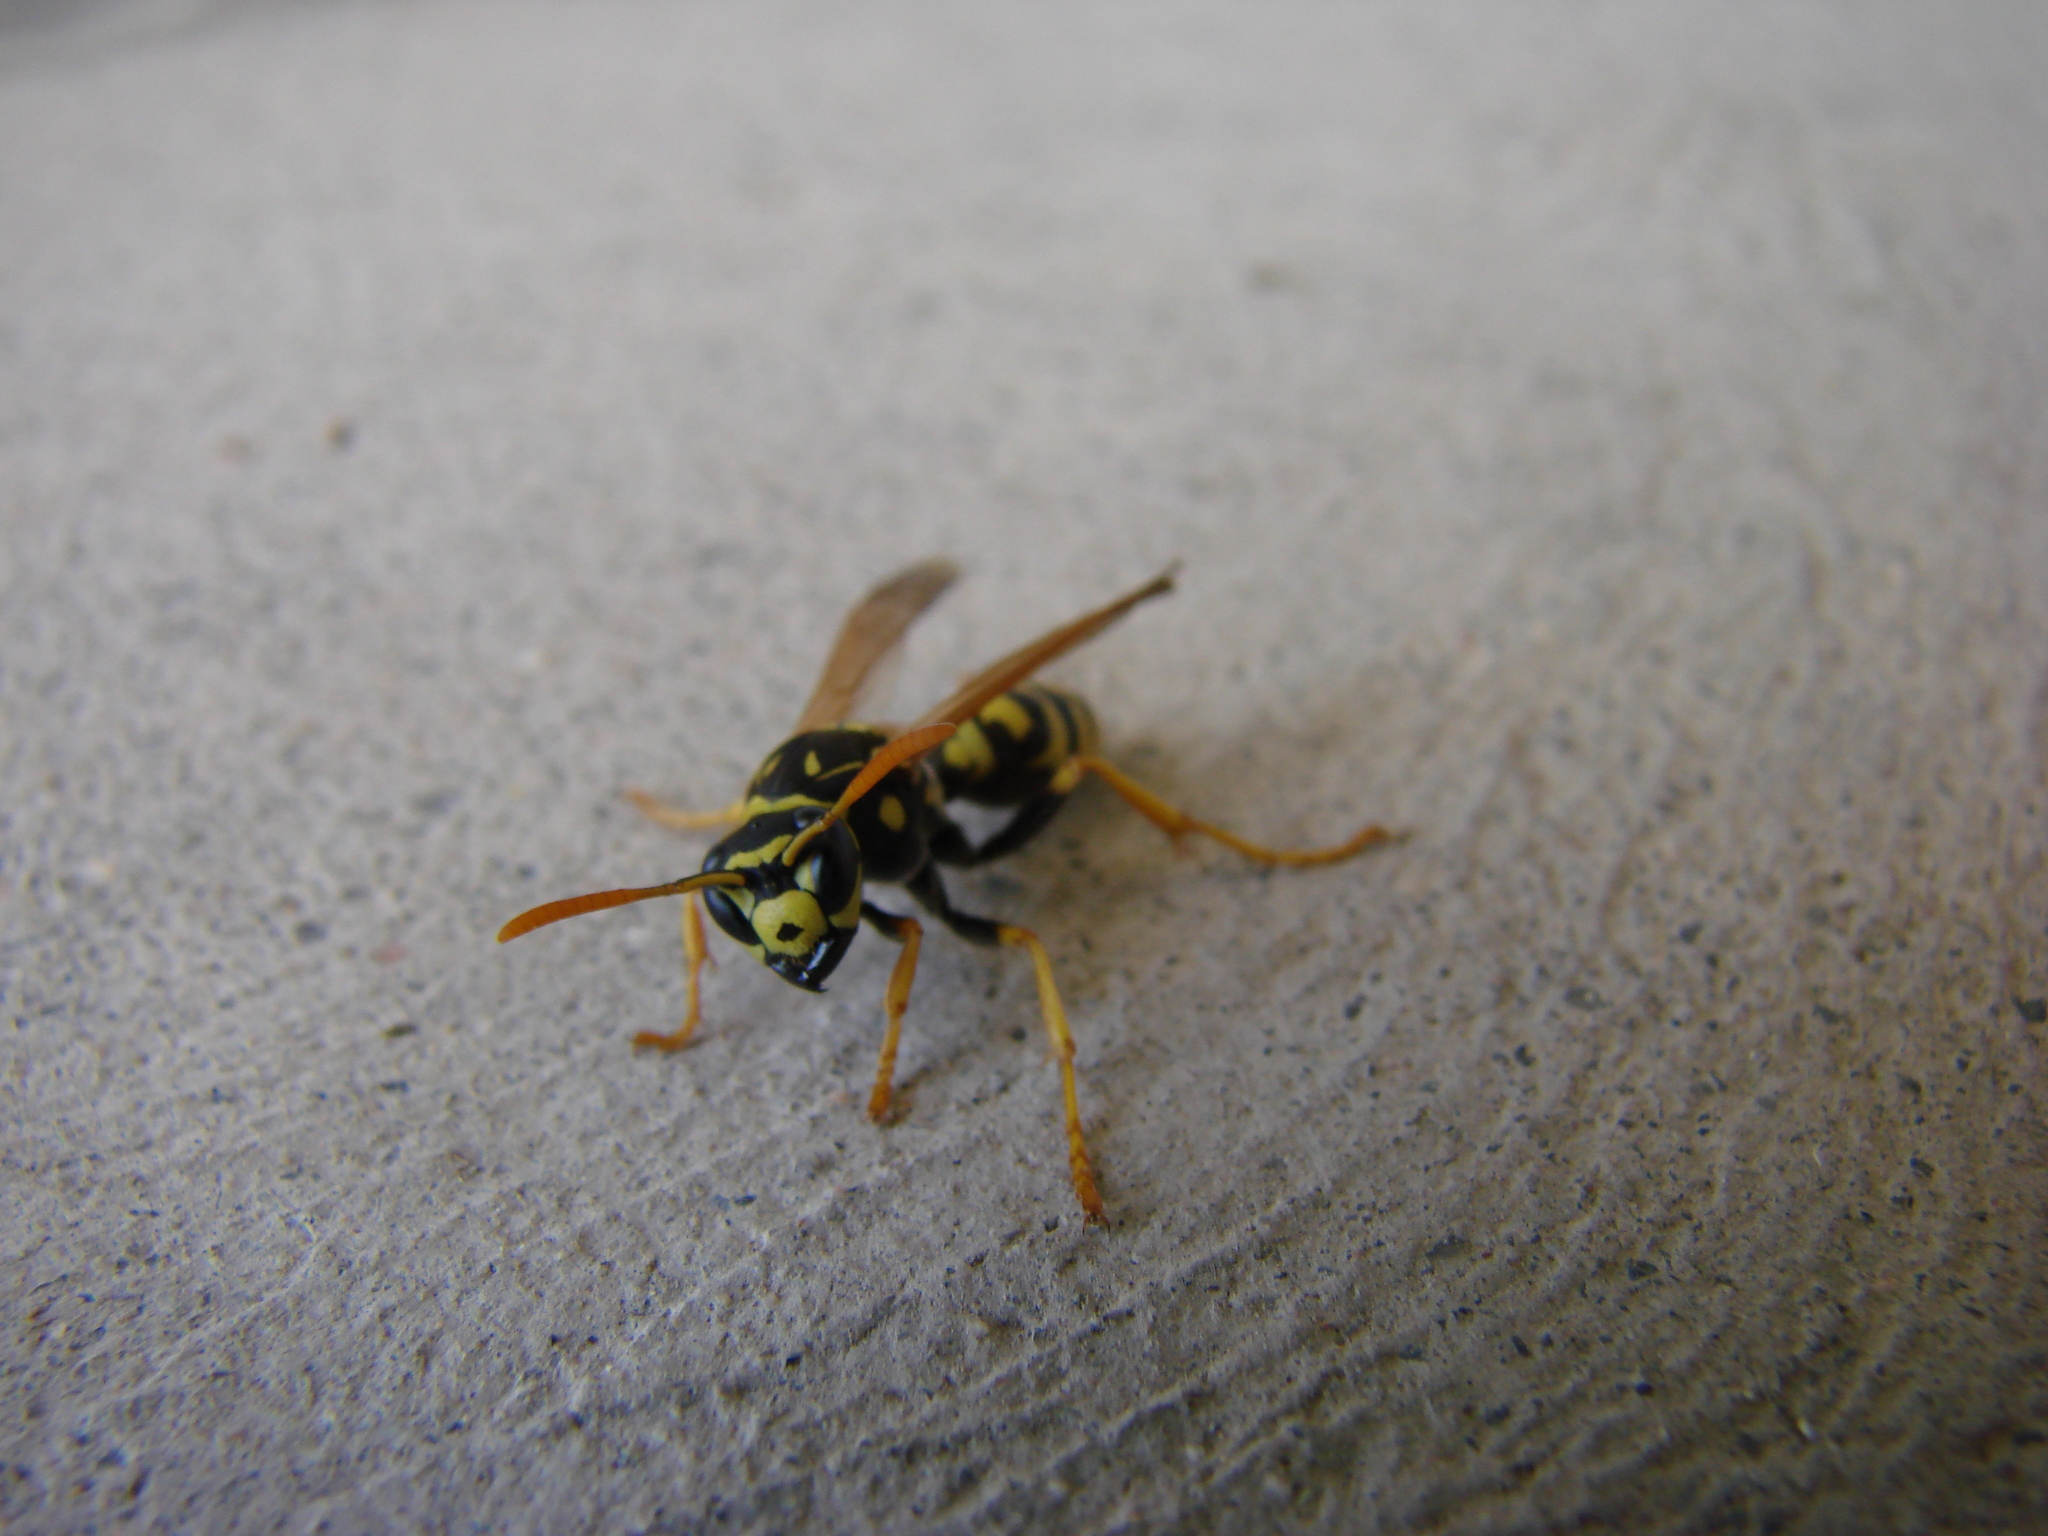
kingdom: Animalia
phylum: Arthropoda
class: Insecta
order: Hymenoptera
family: Eumenidae
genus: Polistes
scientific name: Polistes dominula
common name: Paper wasp
